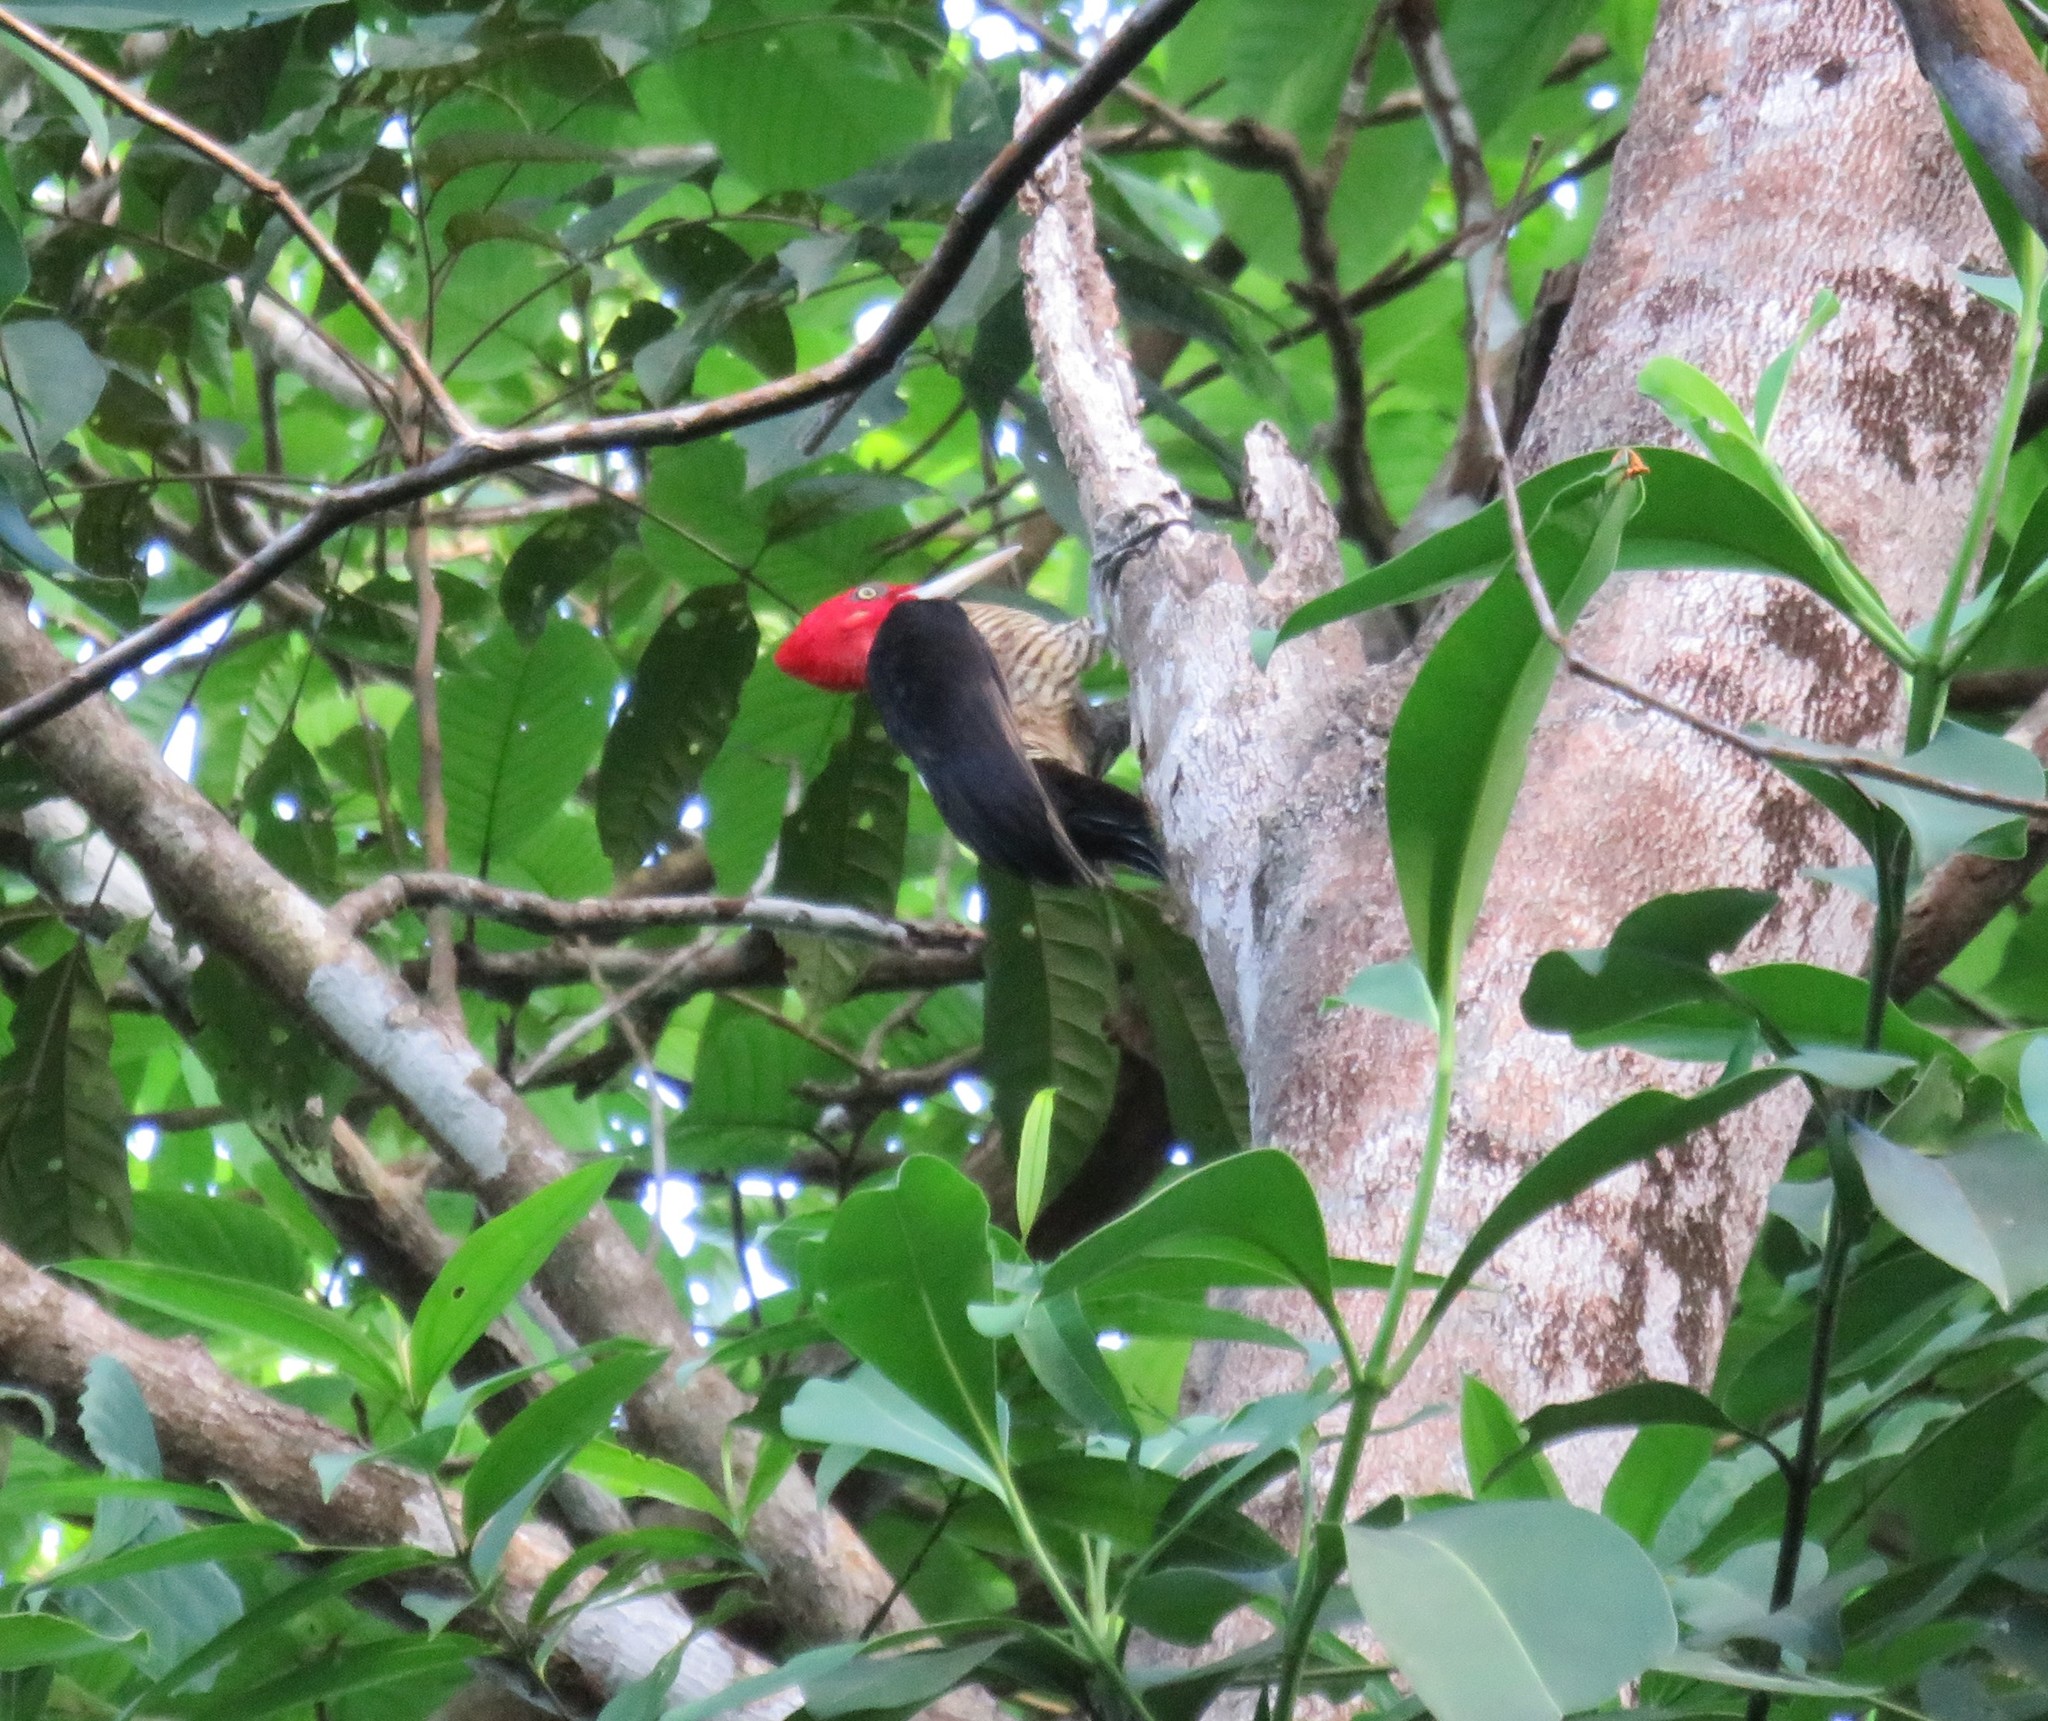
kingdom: Animalia
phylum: Chordata
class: Aves
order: Piciformes
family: Picidae
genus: Campephilus
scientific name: Campephilus guatemalensis
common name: Pale-billed woodpecker
